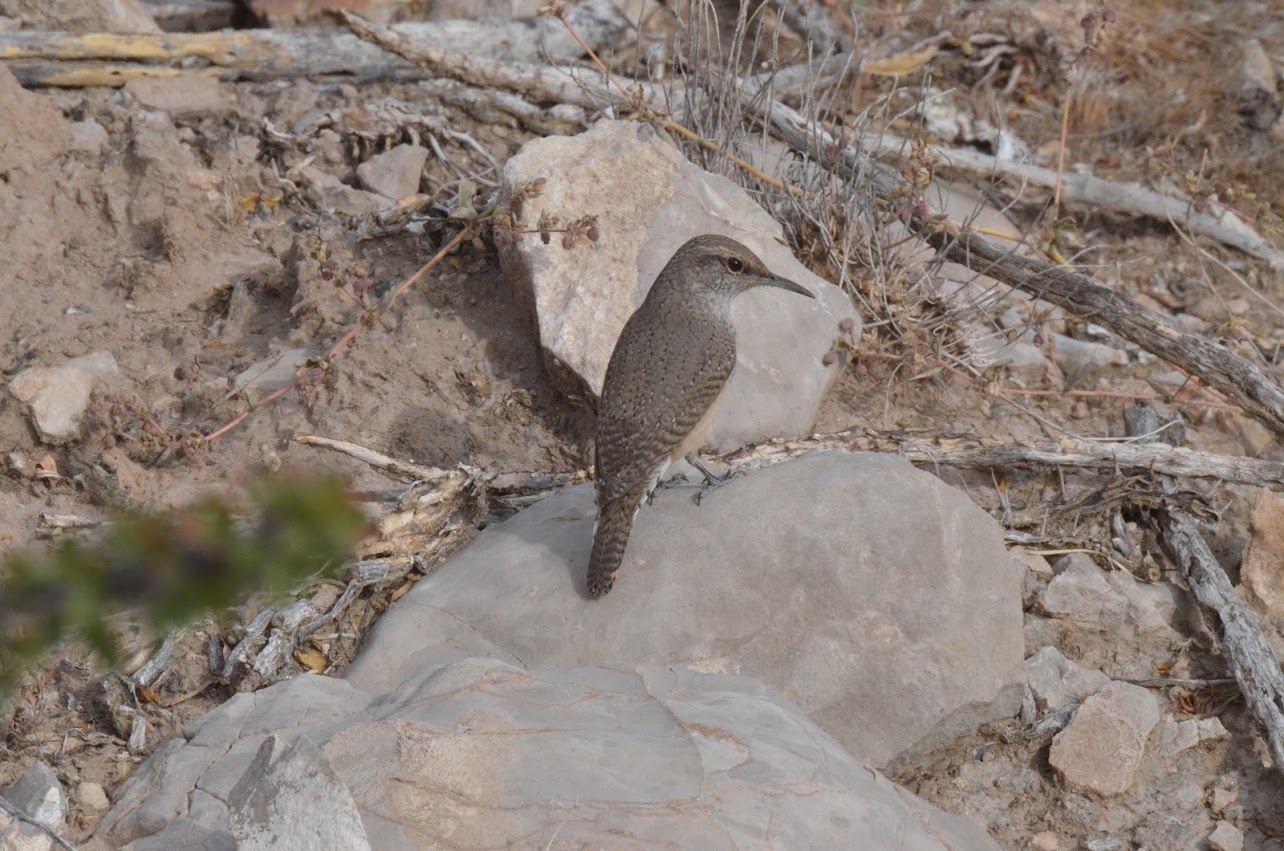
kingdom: Animalia
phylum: Chordata
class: Aves
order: Passeriformes
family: Troglodytidae
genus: Salpinctes
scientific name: Salpinctes obsoletus
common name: Rock wren
